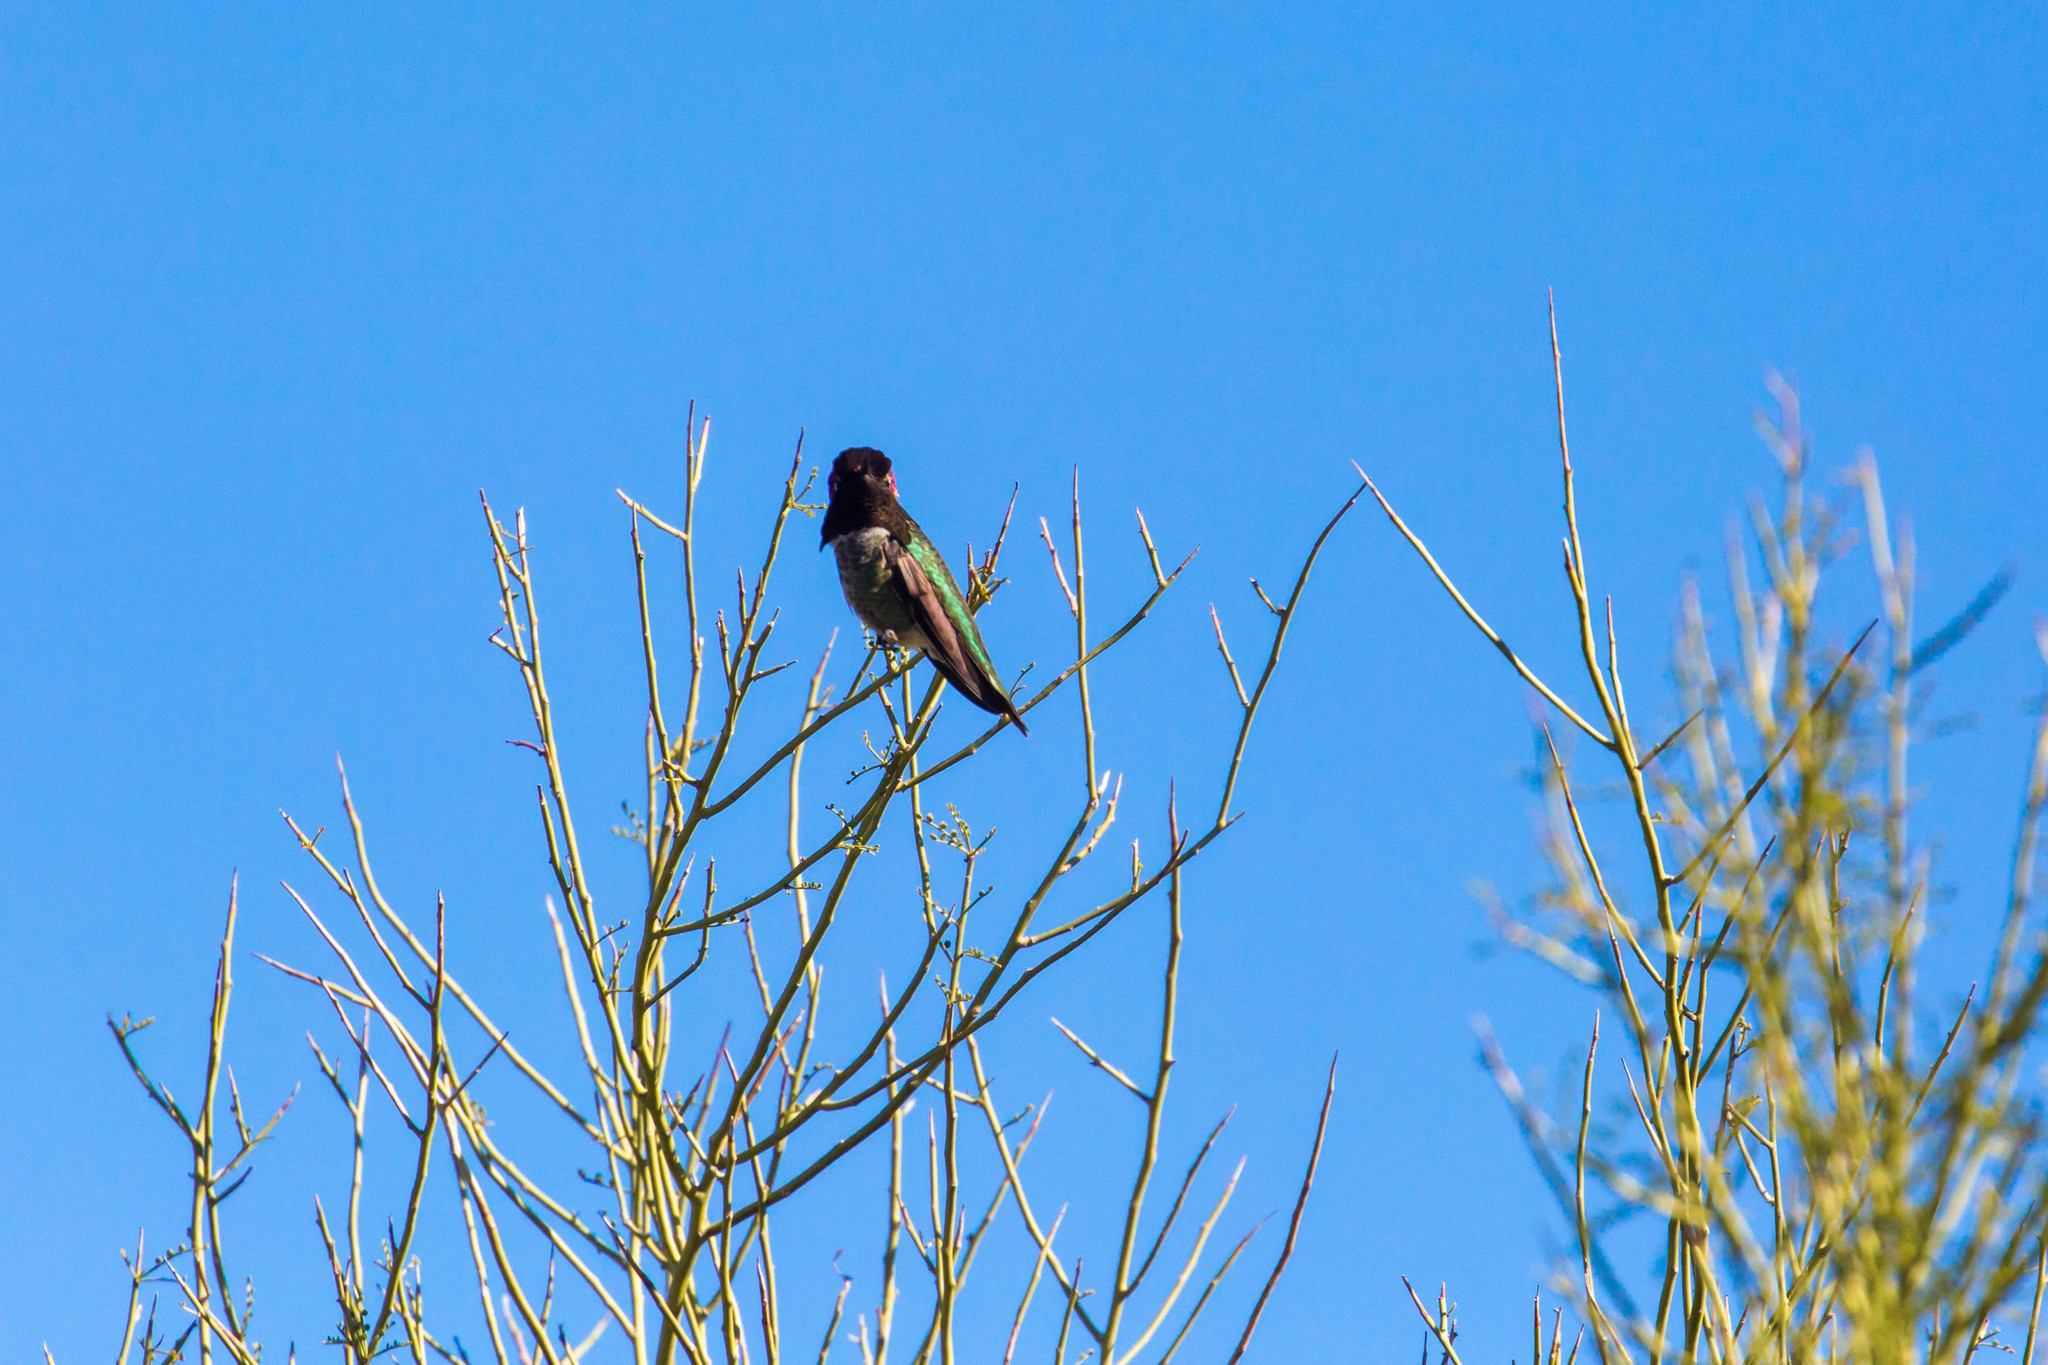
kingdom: Animalia
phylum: Chordata
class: Aves
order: Apodiformes
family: Trochilidae
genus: Calypte
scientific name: Calypte anna
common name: Anna's hummingbird
